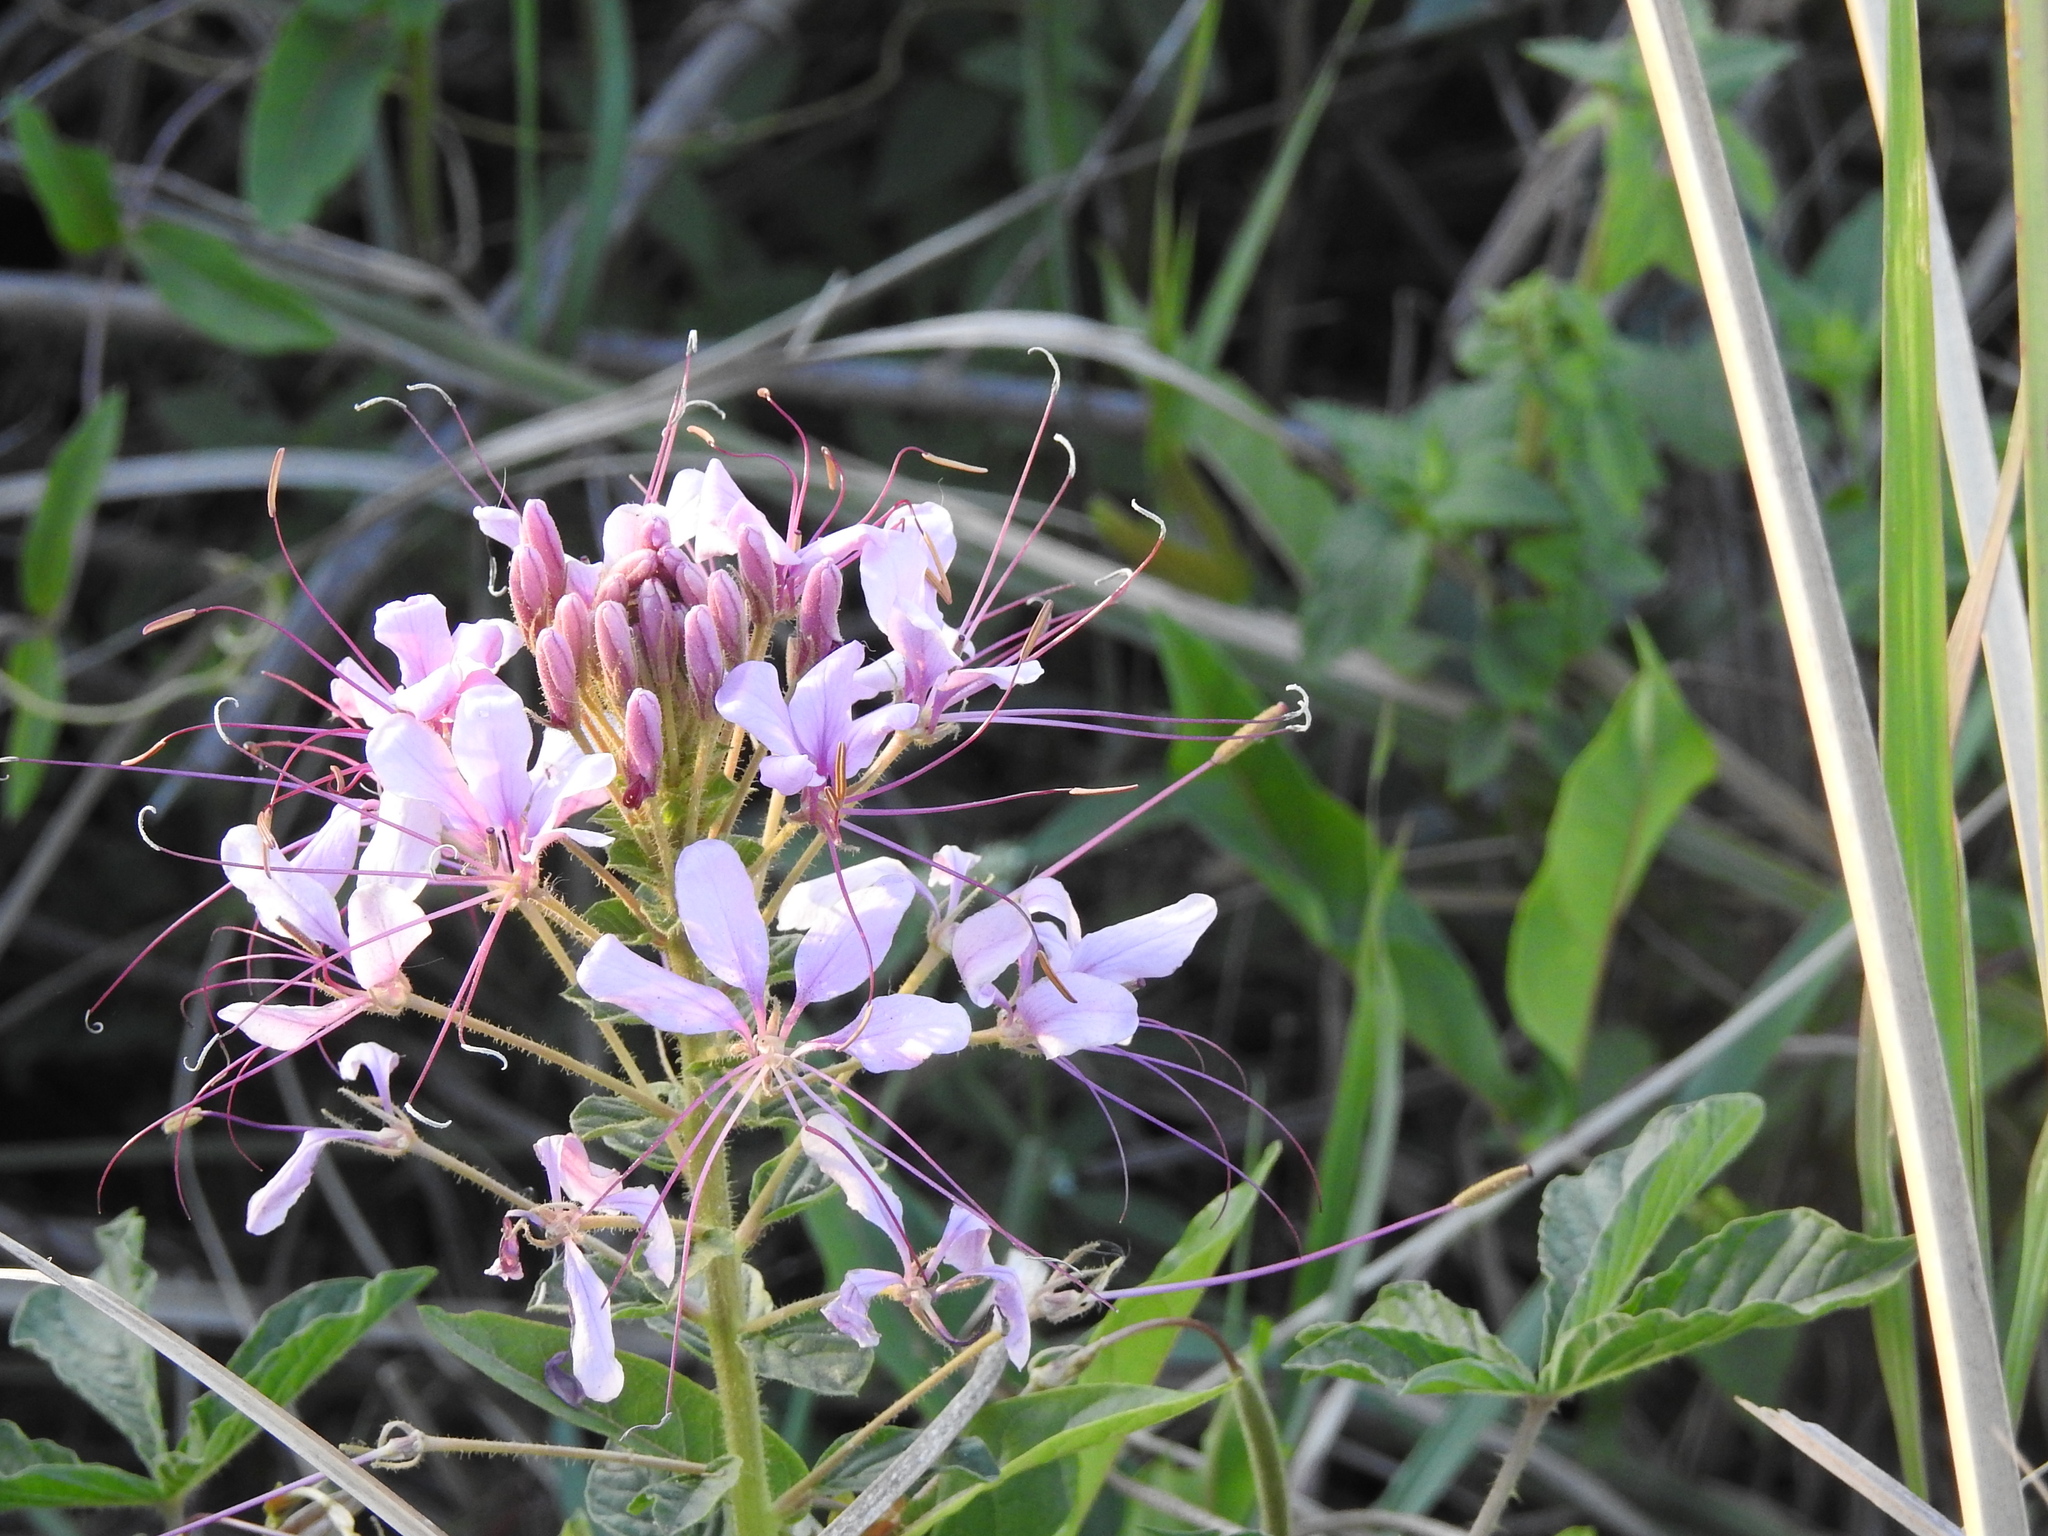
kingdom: Plantae
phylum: Tracheophyta
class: Magnoliopsida
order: Brassicales
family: Cleomaceae
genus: Tarenaya
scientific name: Tarenaya houtteana
